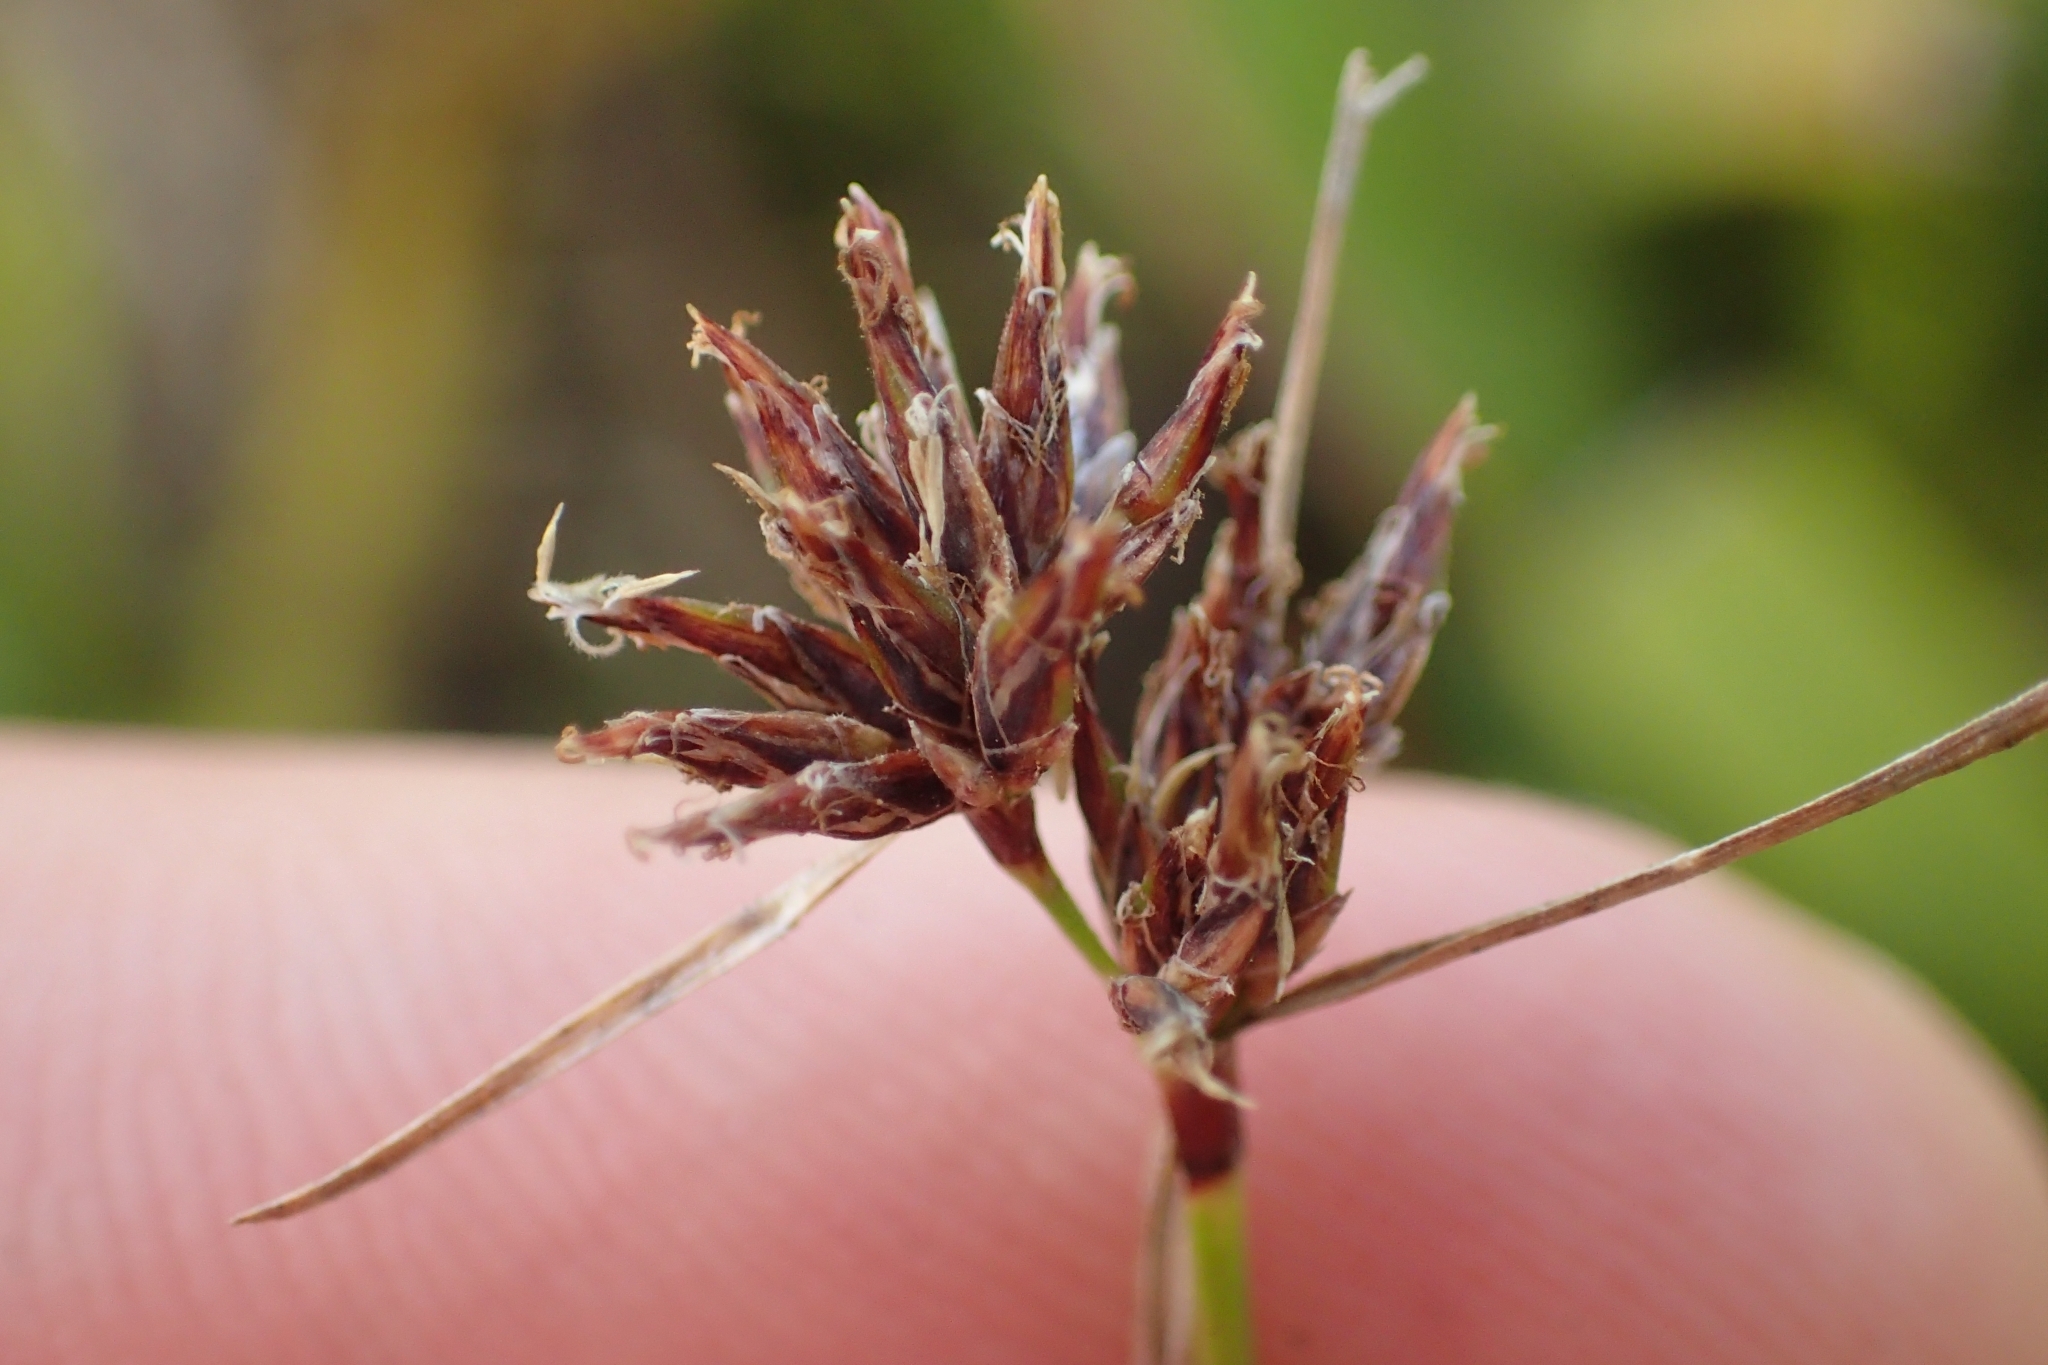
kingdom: Plantae
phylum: Tracheophyta
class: Liliopsida
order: Poales
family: Cyperaceae
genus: Schoenus
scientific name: Schoenus apogon
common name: Smooth bogrush
